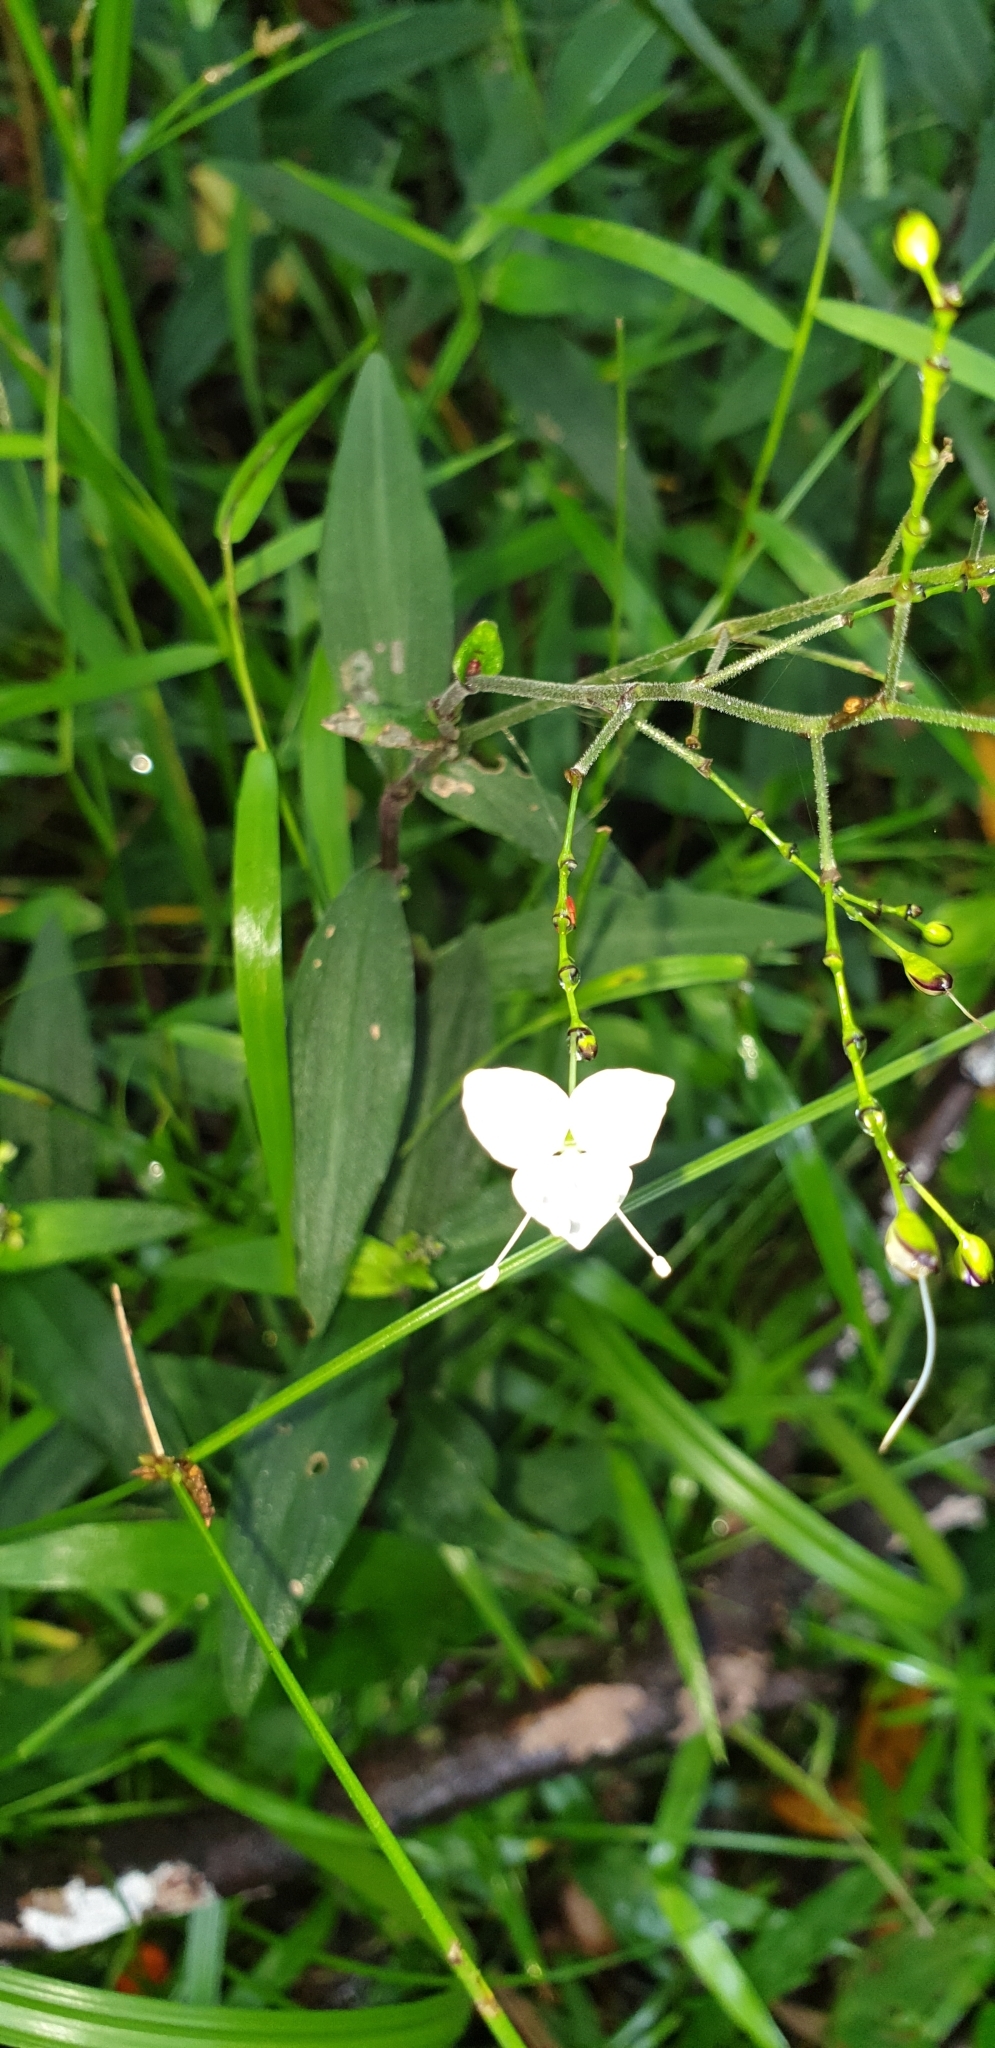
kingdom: Plantae
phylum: Tracheophyta
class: Liliopsida
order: Commelinales
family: Commelinaceae
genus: Aneilema
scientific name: Aneilema acuminatum
